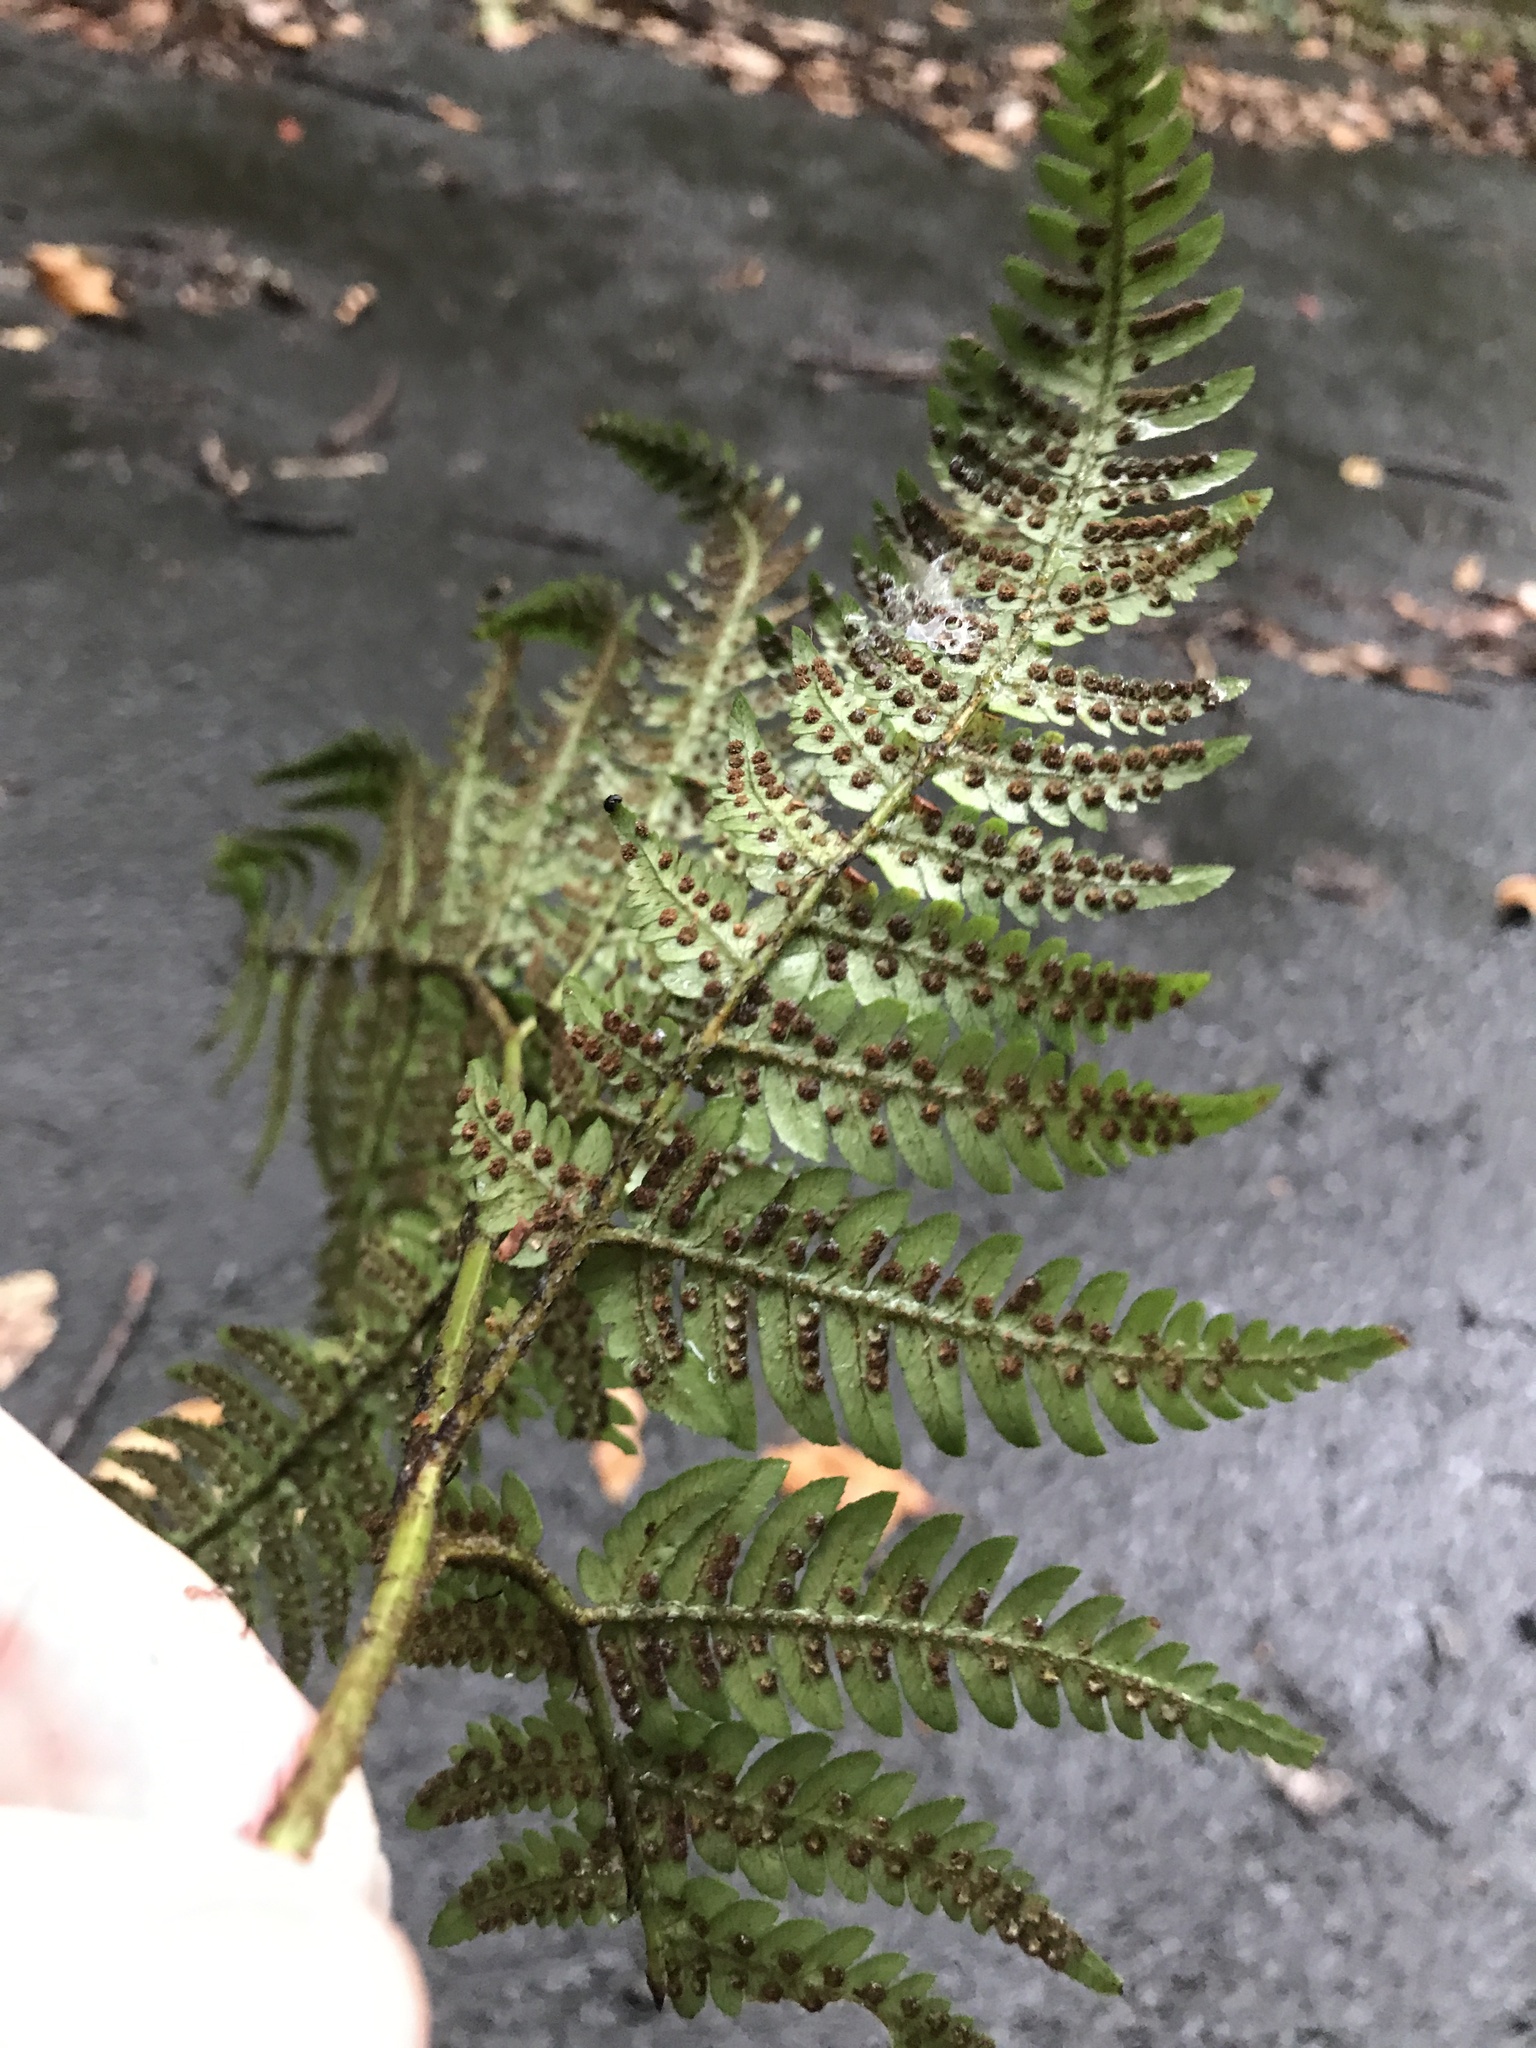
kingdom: Plantae
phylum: Tracheophyta
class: Polypodiopsida
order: Polypodiales
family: Dryopteridaceae
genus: Dryopteris
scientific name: Dryopteris immixta
